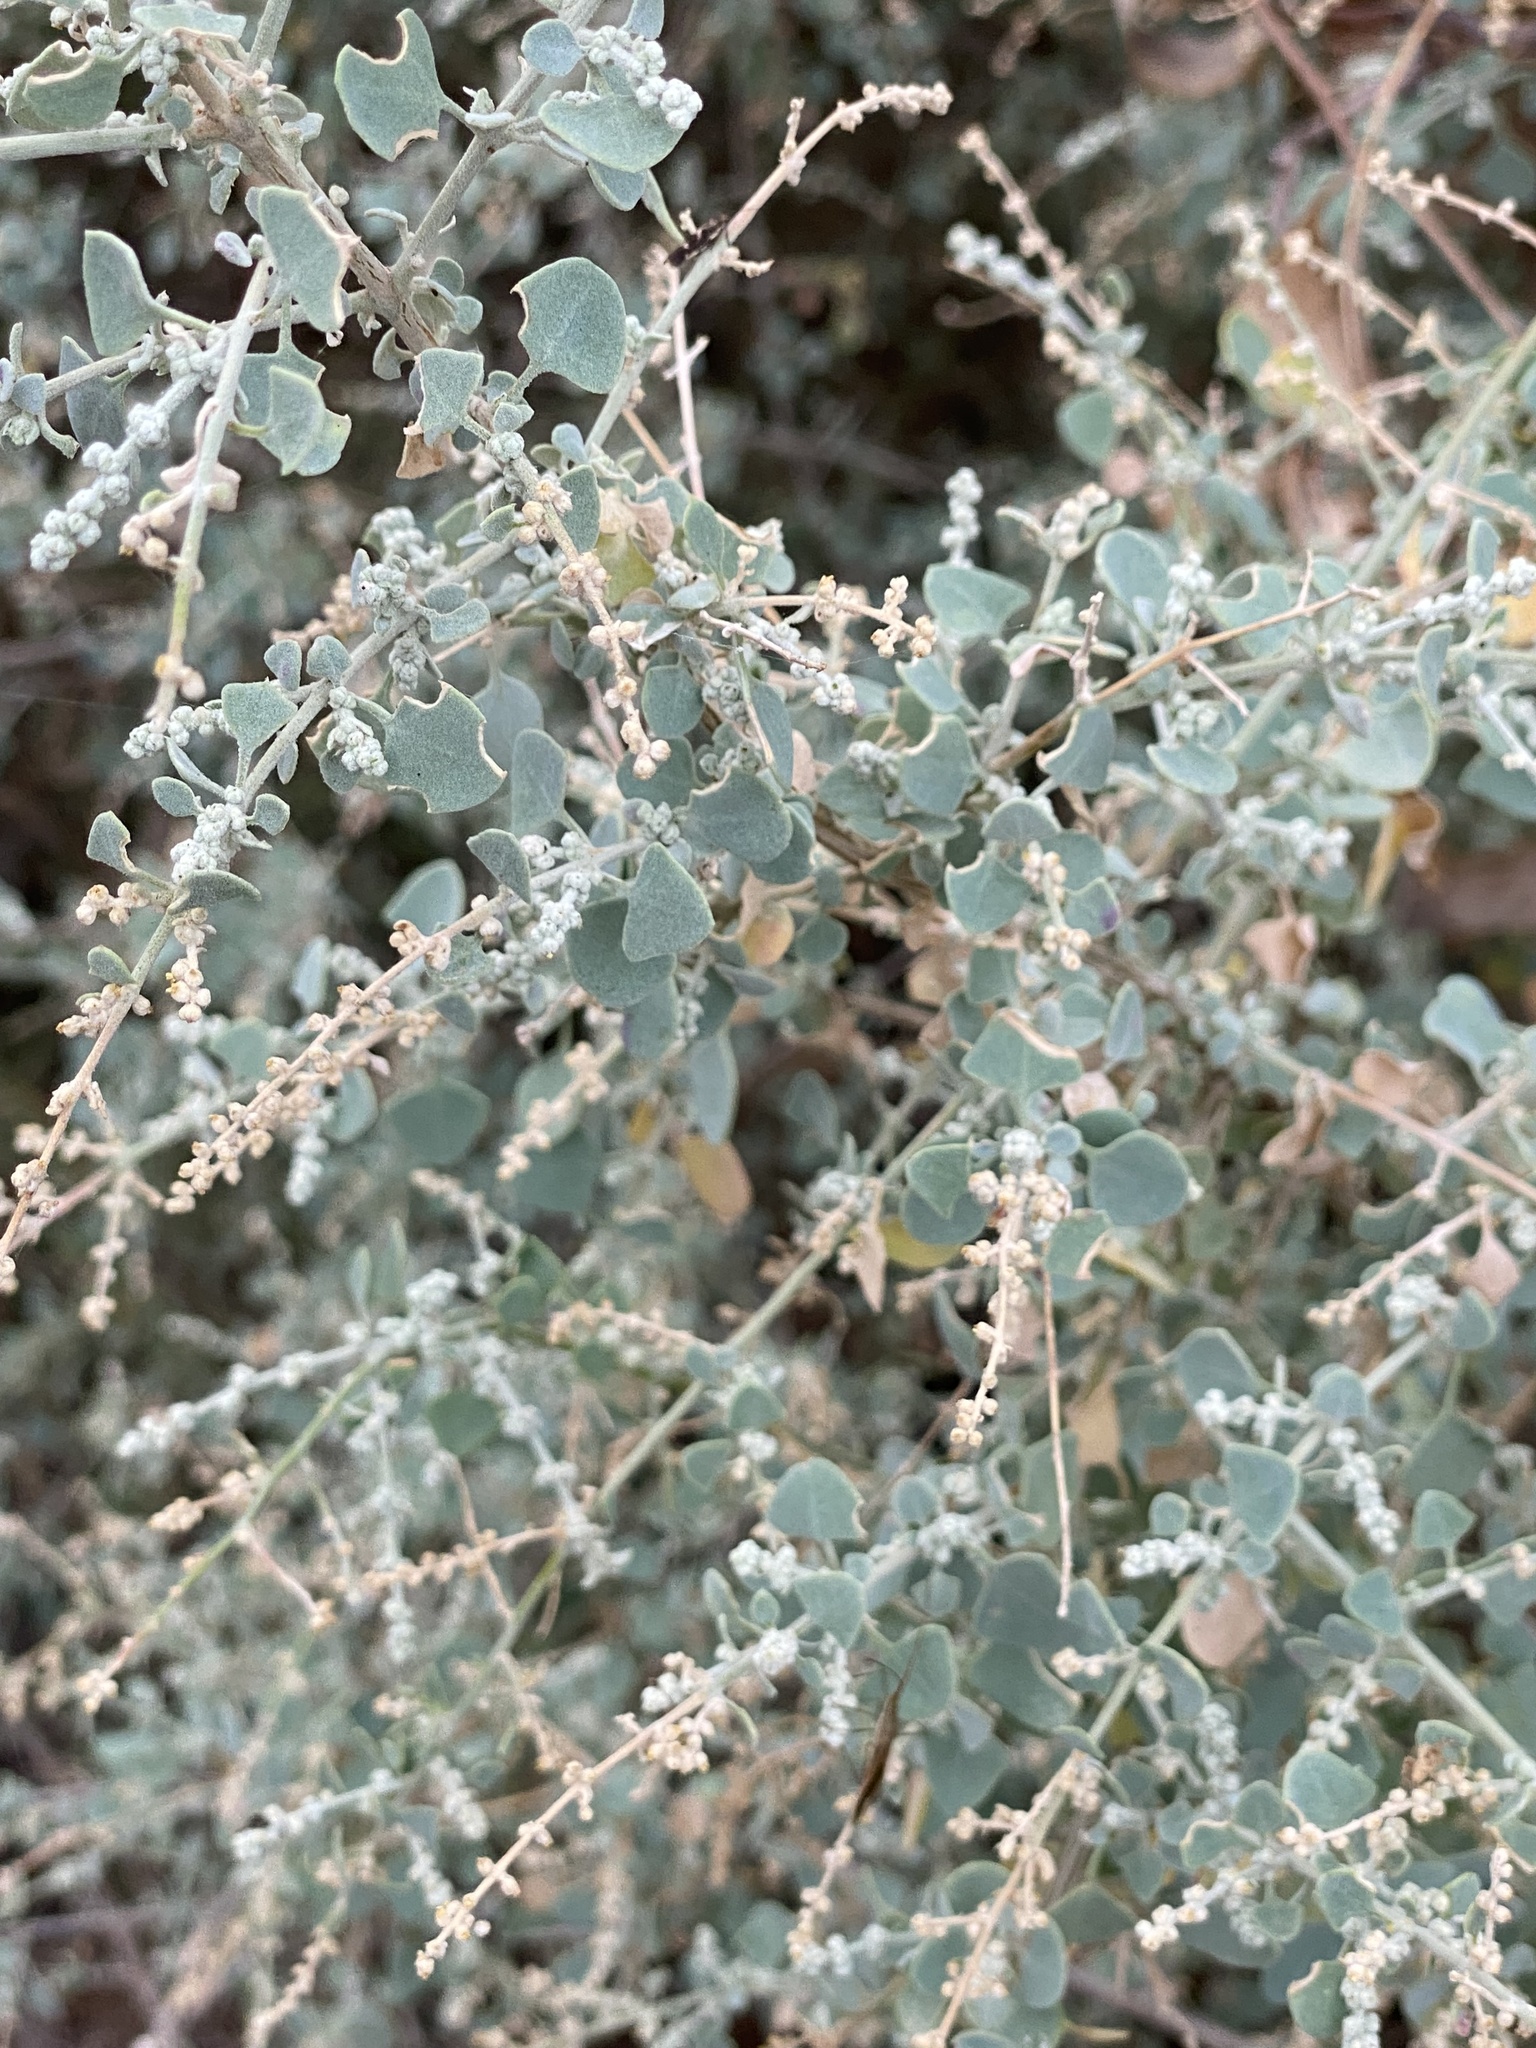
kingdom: Plantae
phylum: Tracheophyta
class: Magnoliopsida
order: Caryophyllales
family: Amaranthaceae
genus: Chenopodium
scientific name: Chenopodium spinescens
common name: Berry-saltbush
